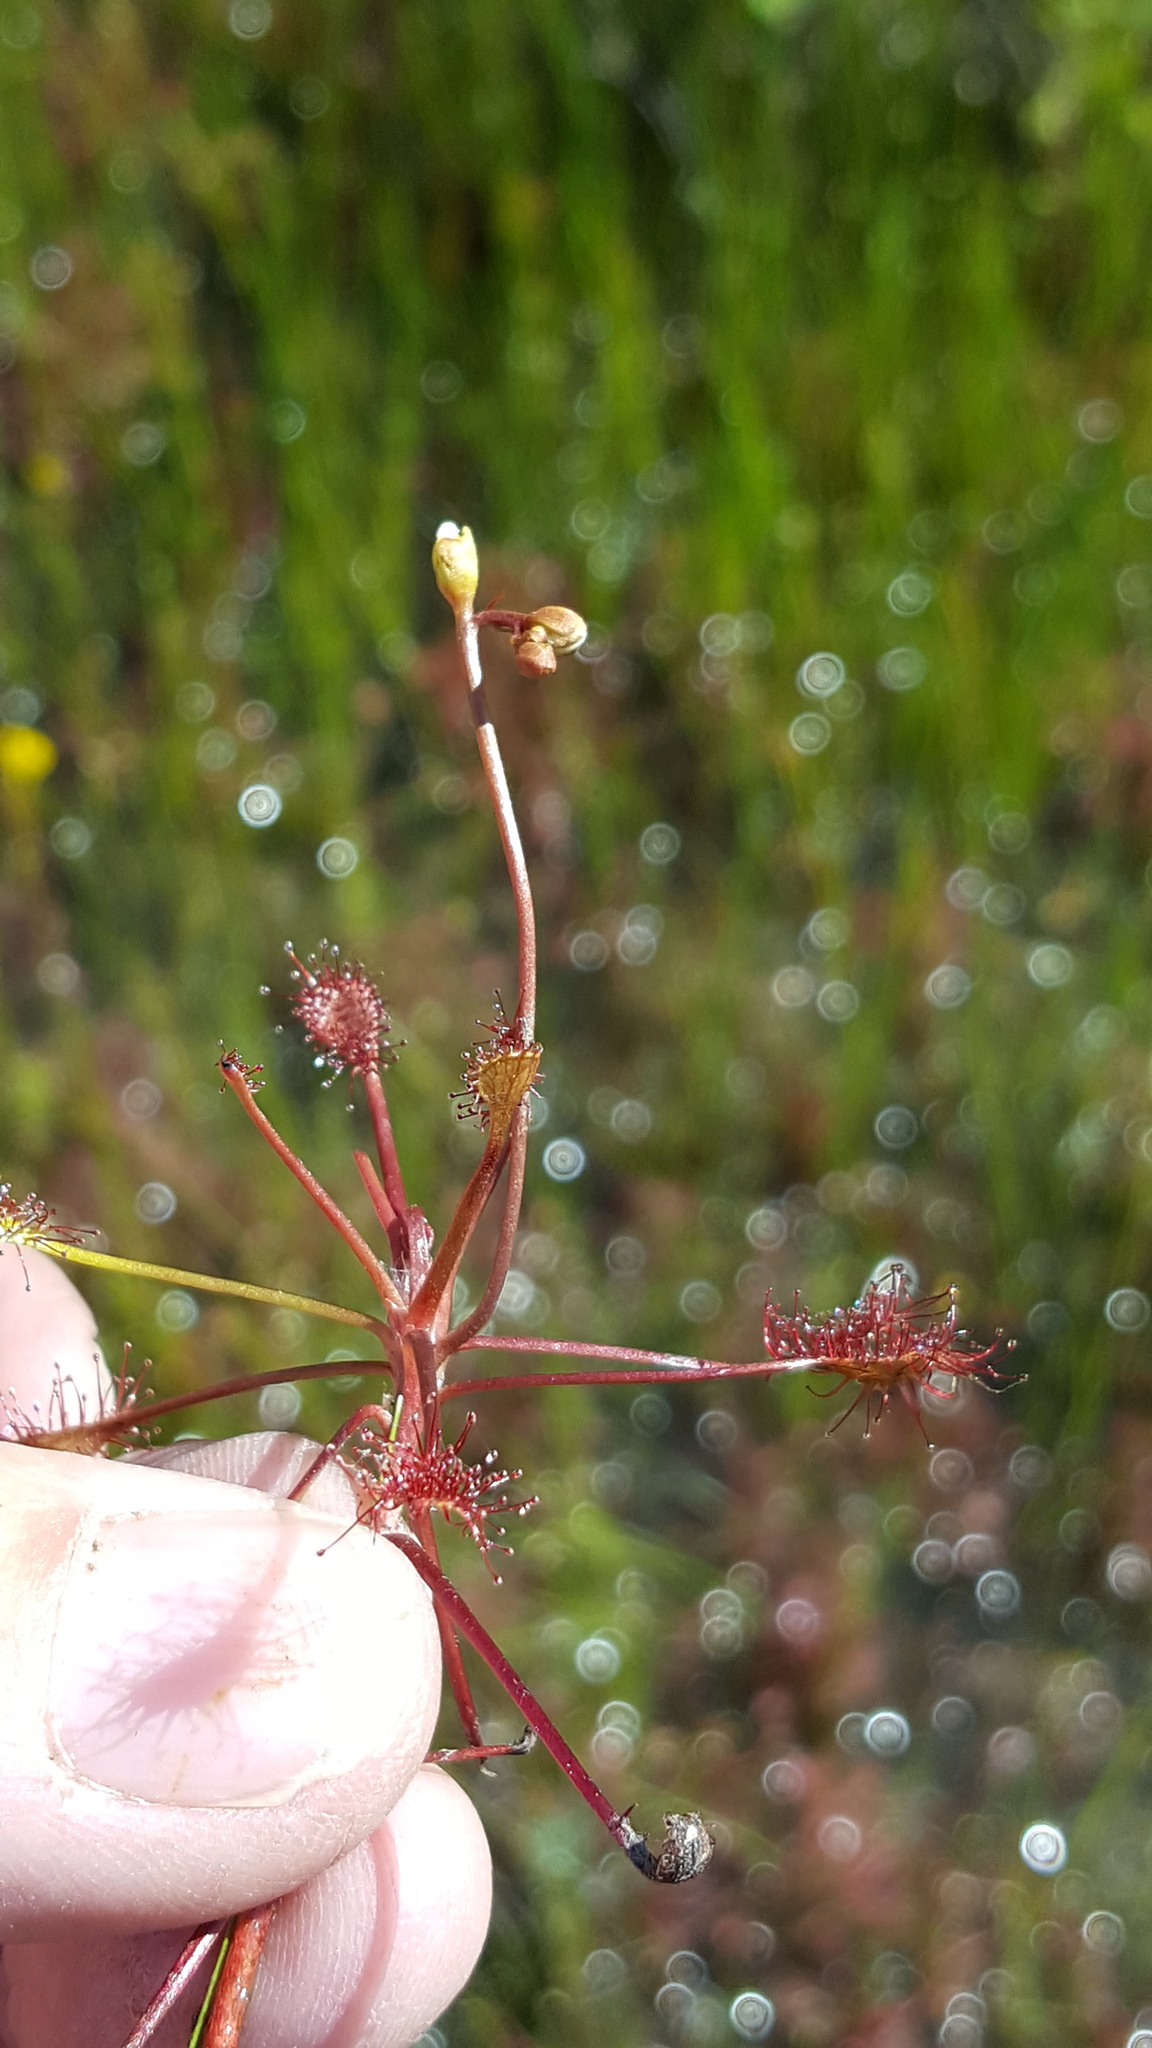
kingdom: Plantae
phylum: Tracheophyta
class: Magnoliopsida
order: Caryophyllales
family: Droseraceae
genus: Drosera
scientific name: Drosera intermedia
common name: Oblong-leaved sundew
